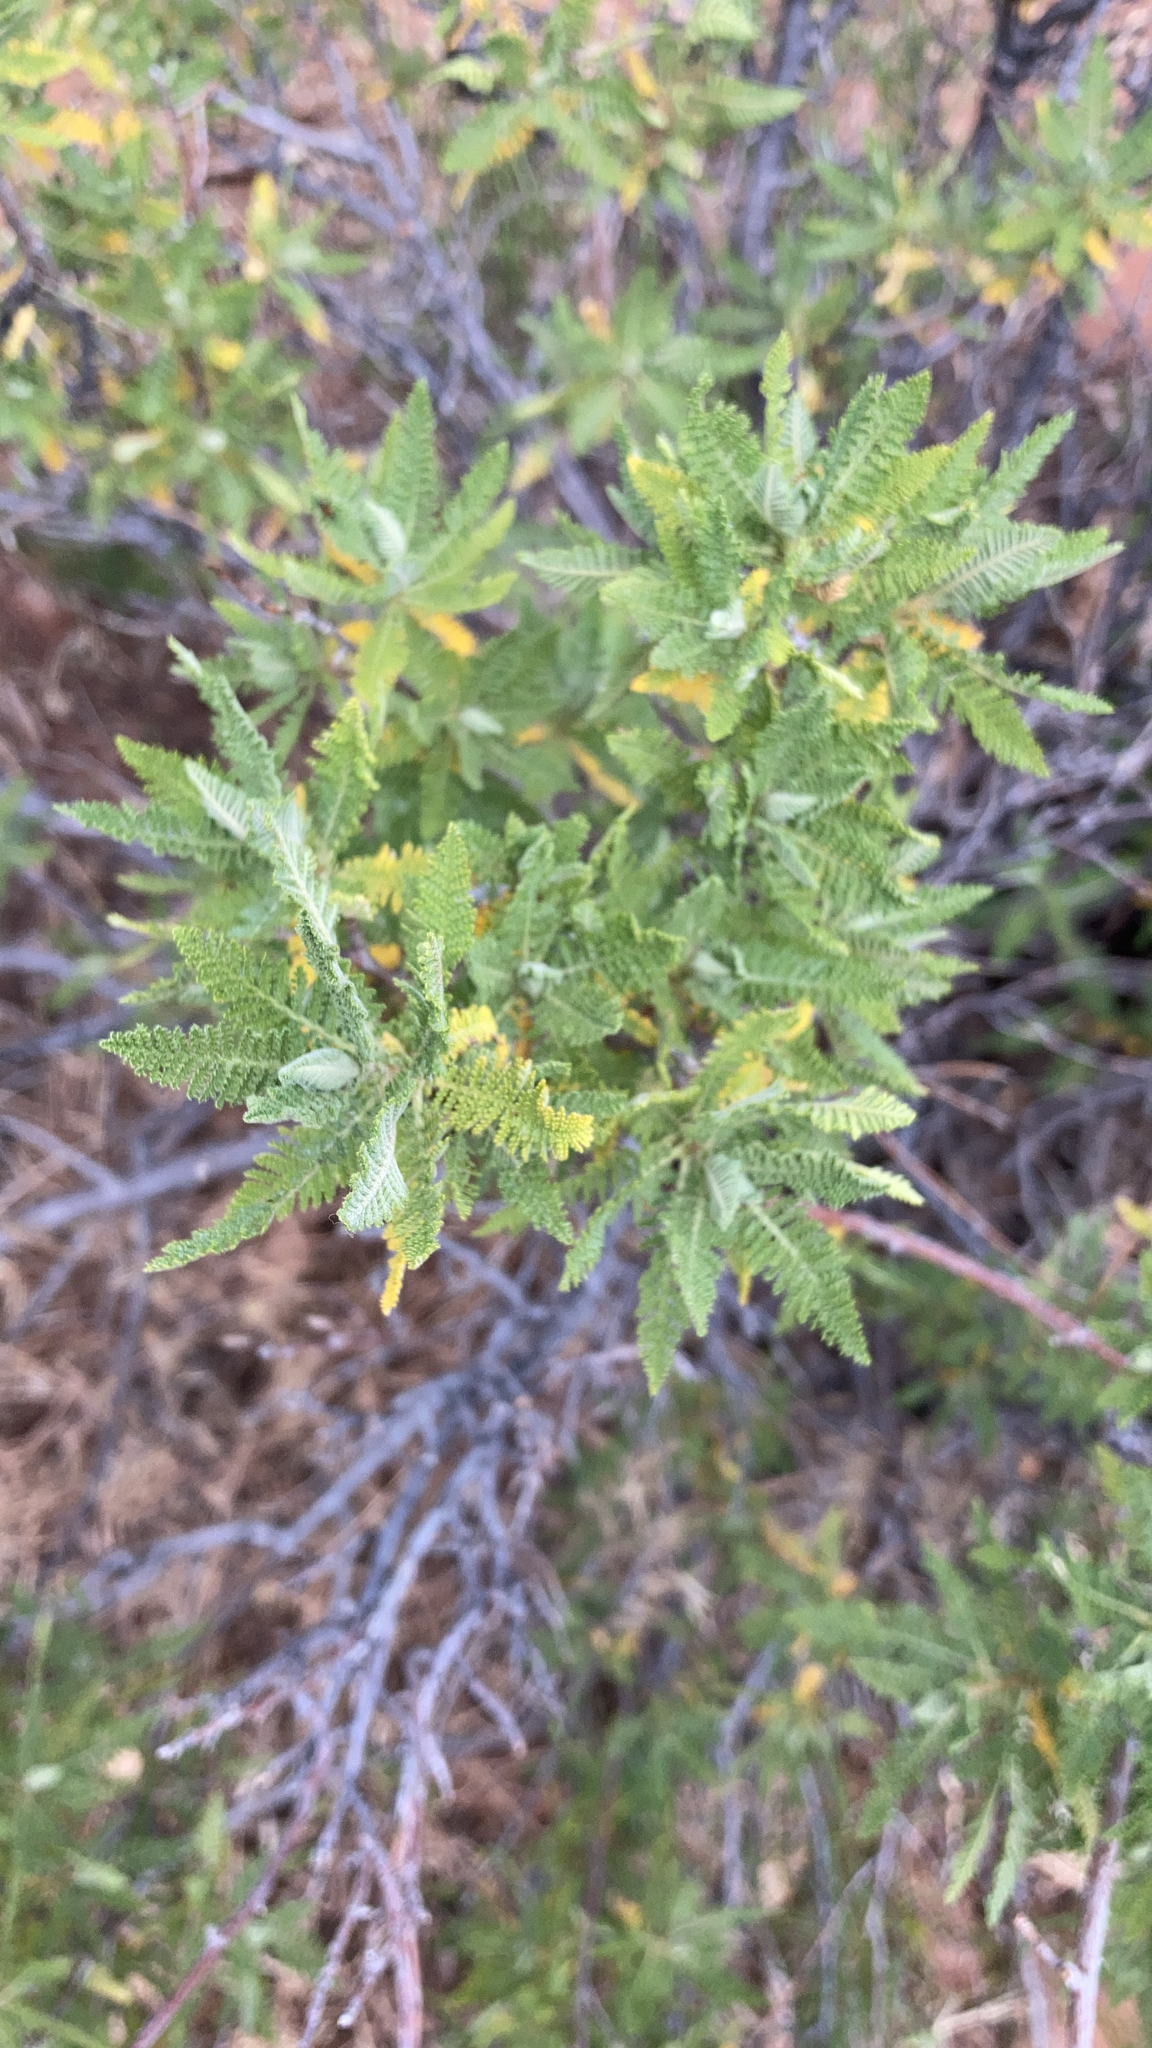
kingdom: Plantae
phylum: Tracheophyta
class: Magnoliopsida
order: Rosales
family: Rosaceae
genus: Chamaebatiaria
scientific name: Chamaebatiaria millefolium
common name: Fernbush
